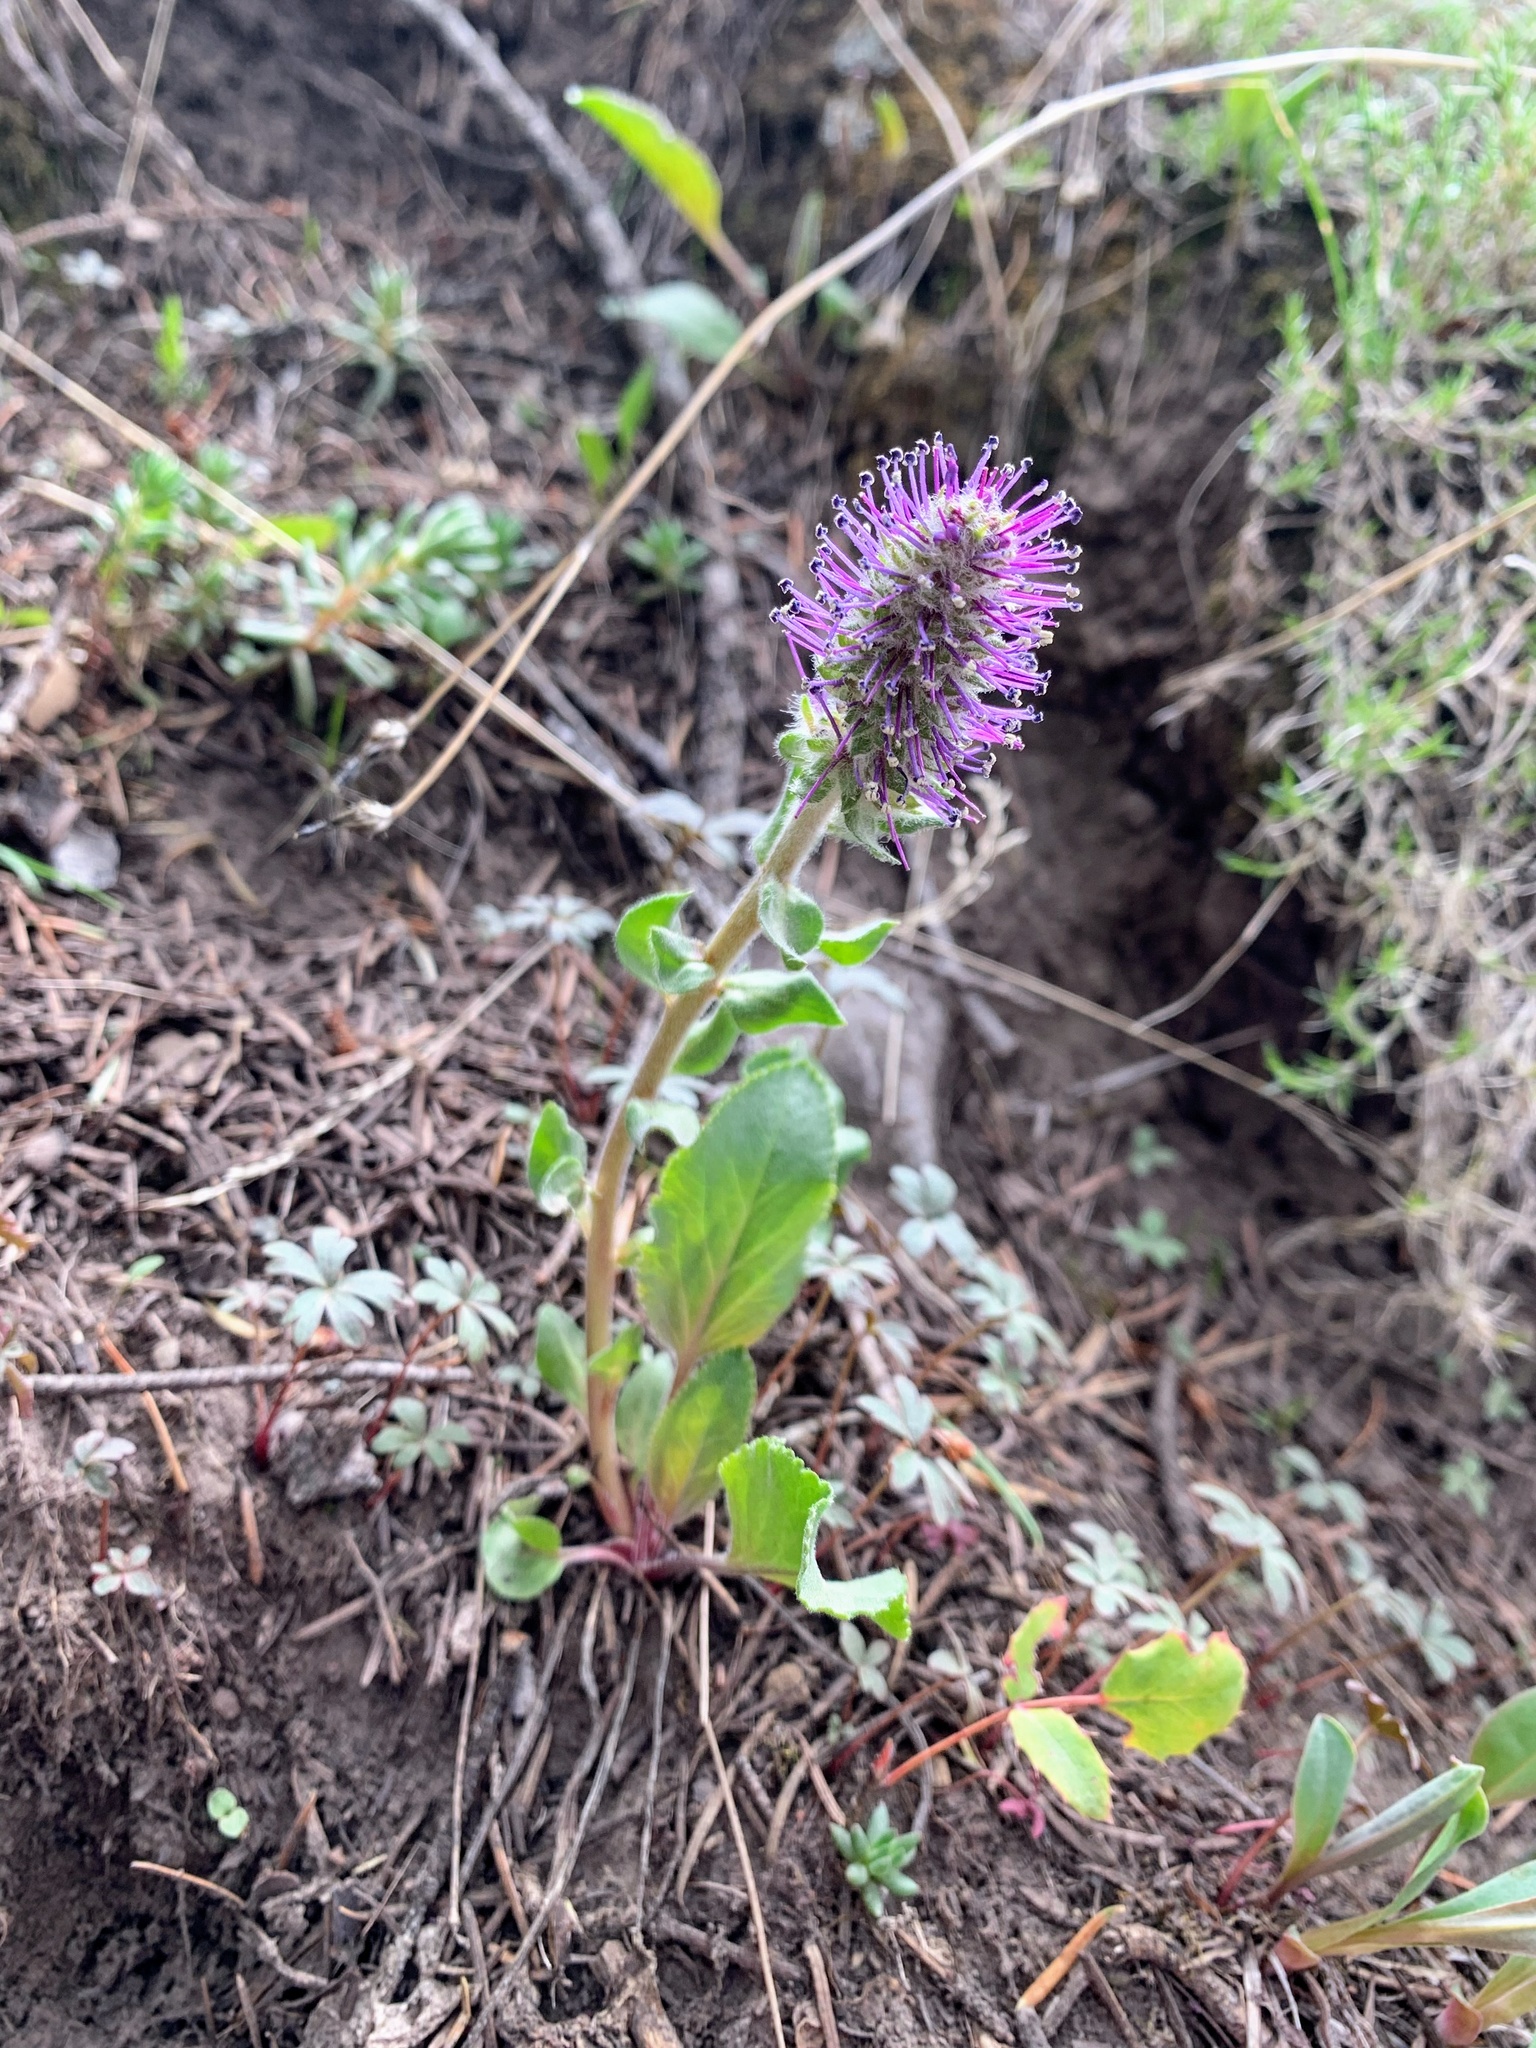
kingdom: Plantae
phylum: Tracheophyta
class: Magnoliopsida
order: Lamiales
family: Plantaginaceae
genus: Synthyris
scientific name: Synthyris wyomingensis
